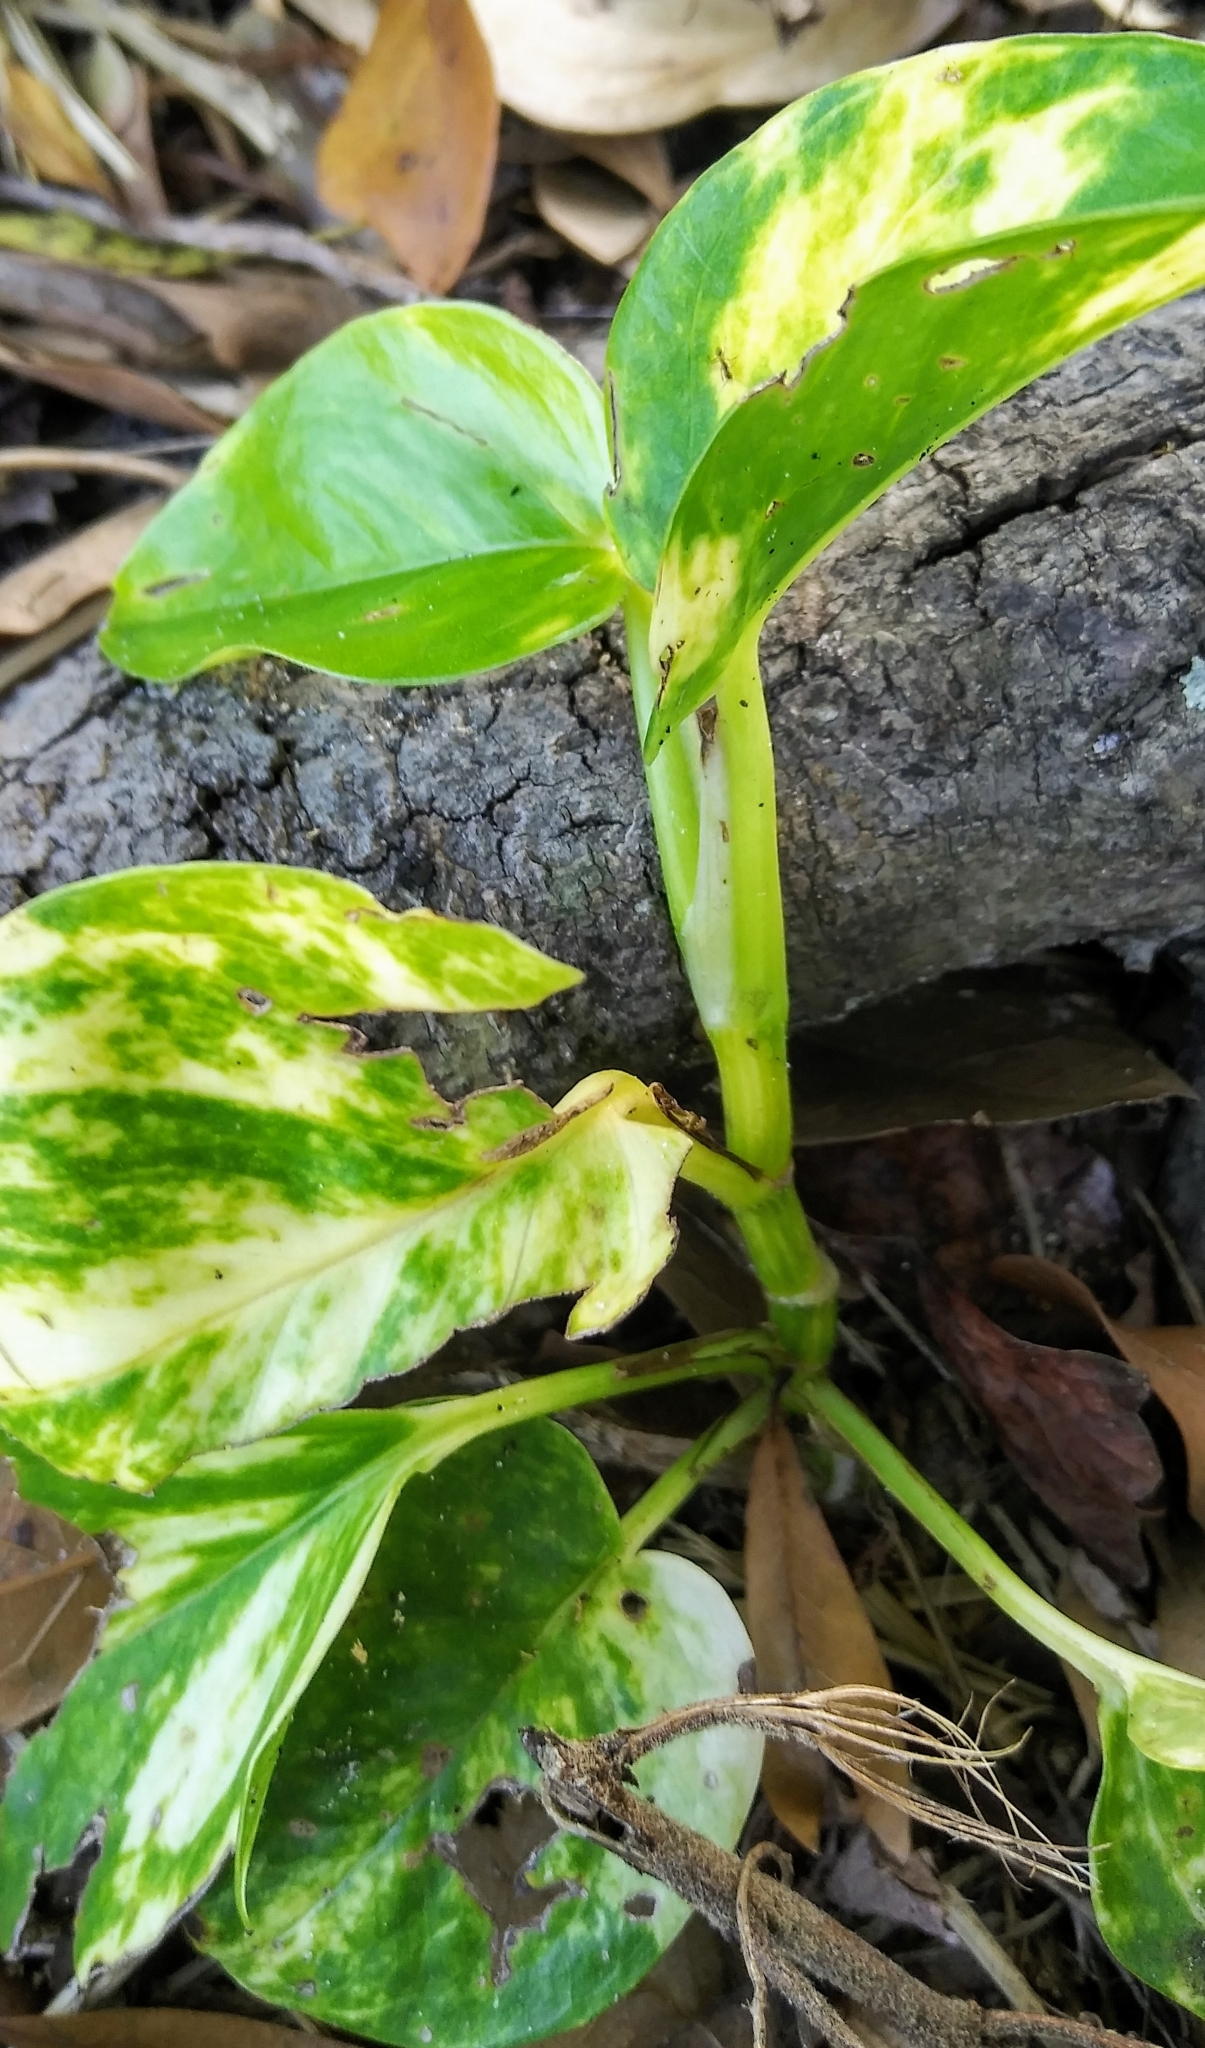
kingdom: Plantae
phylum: Tracheophyta
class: Liliopsida
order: Alismatales
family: Araceae
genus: Epipremnum
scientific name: Epipremnum aureum
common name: Golden hunter's-robe
